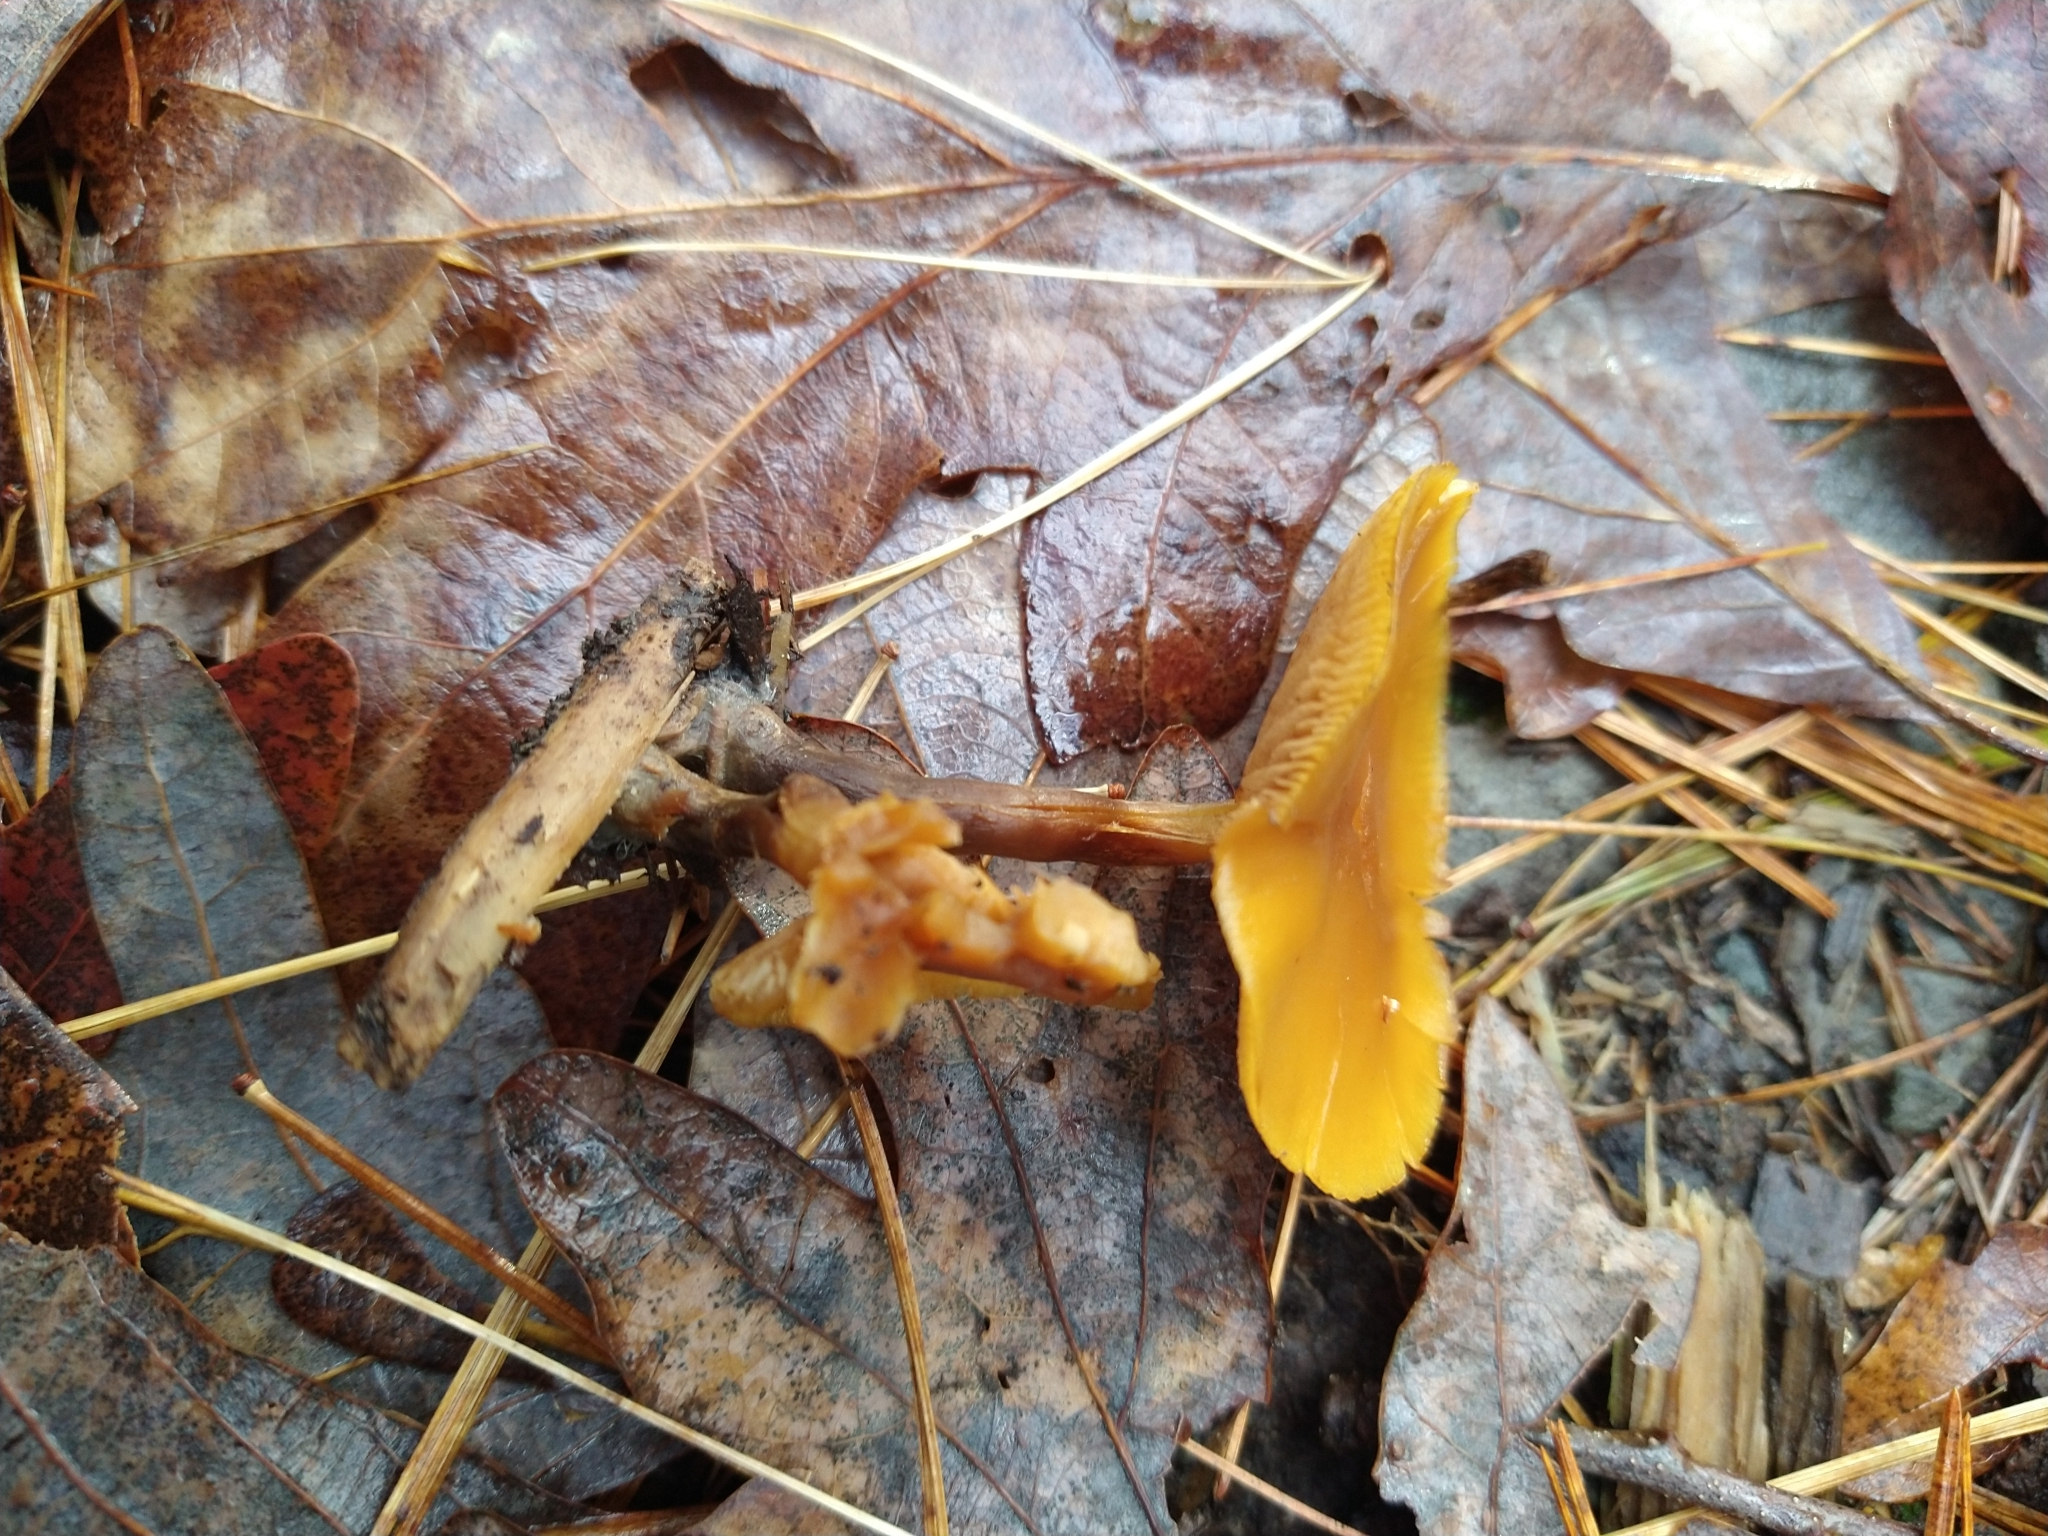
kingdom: Fungi
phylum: Basidiomycota
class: Agaricomycetes
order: Agaricales
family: Hymenogastraceae
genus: Galerina
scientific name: Galerina marginata
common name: Funeral bell
